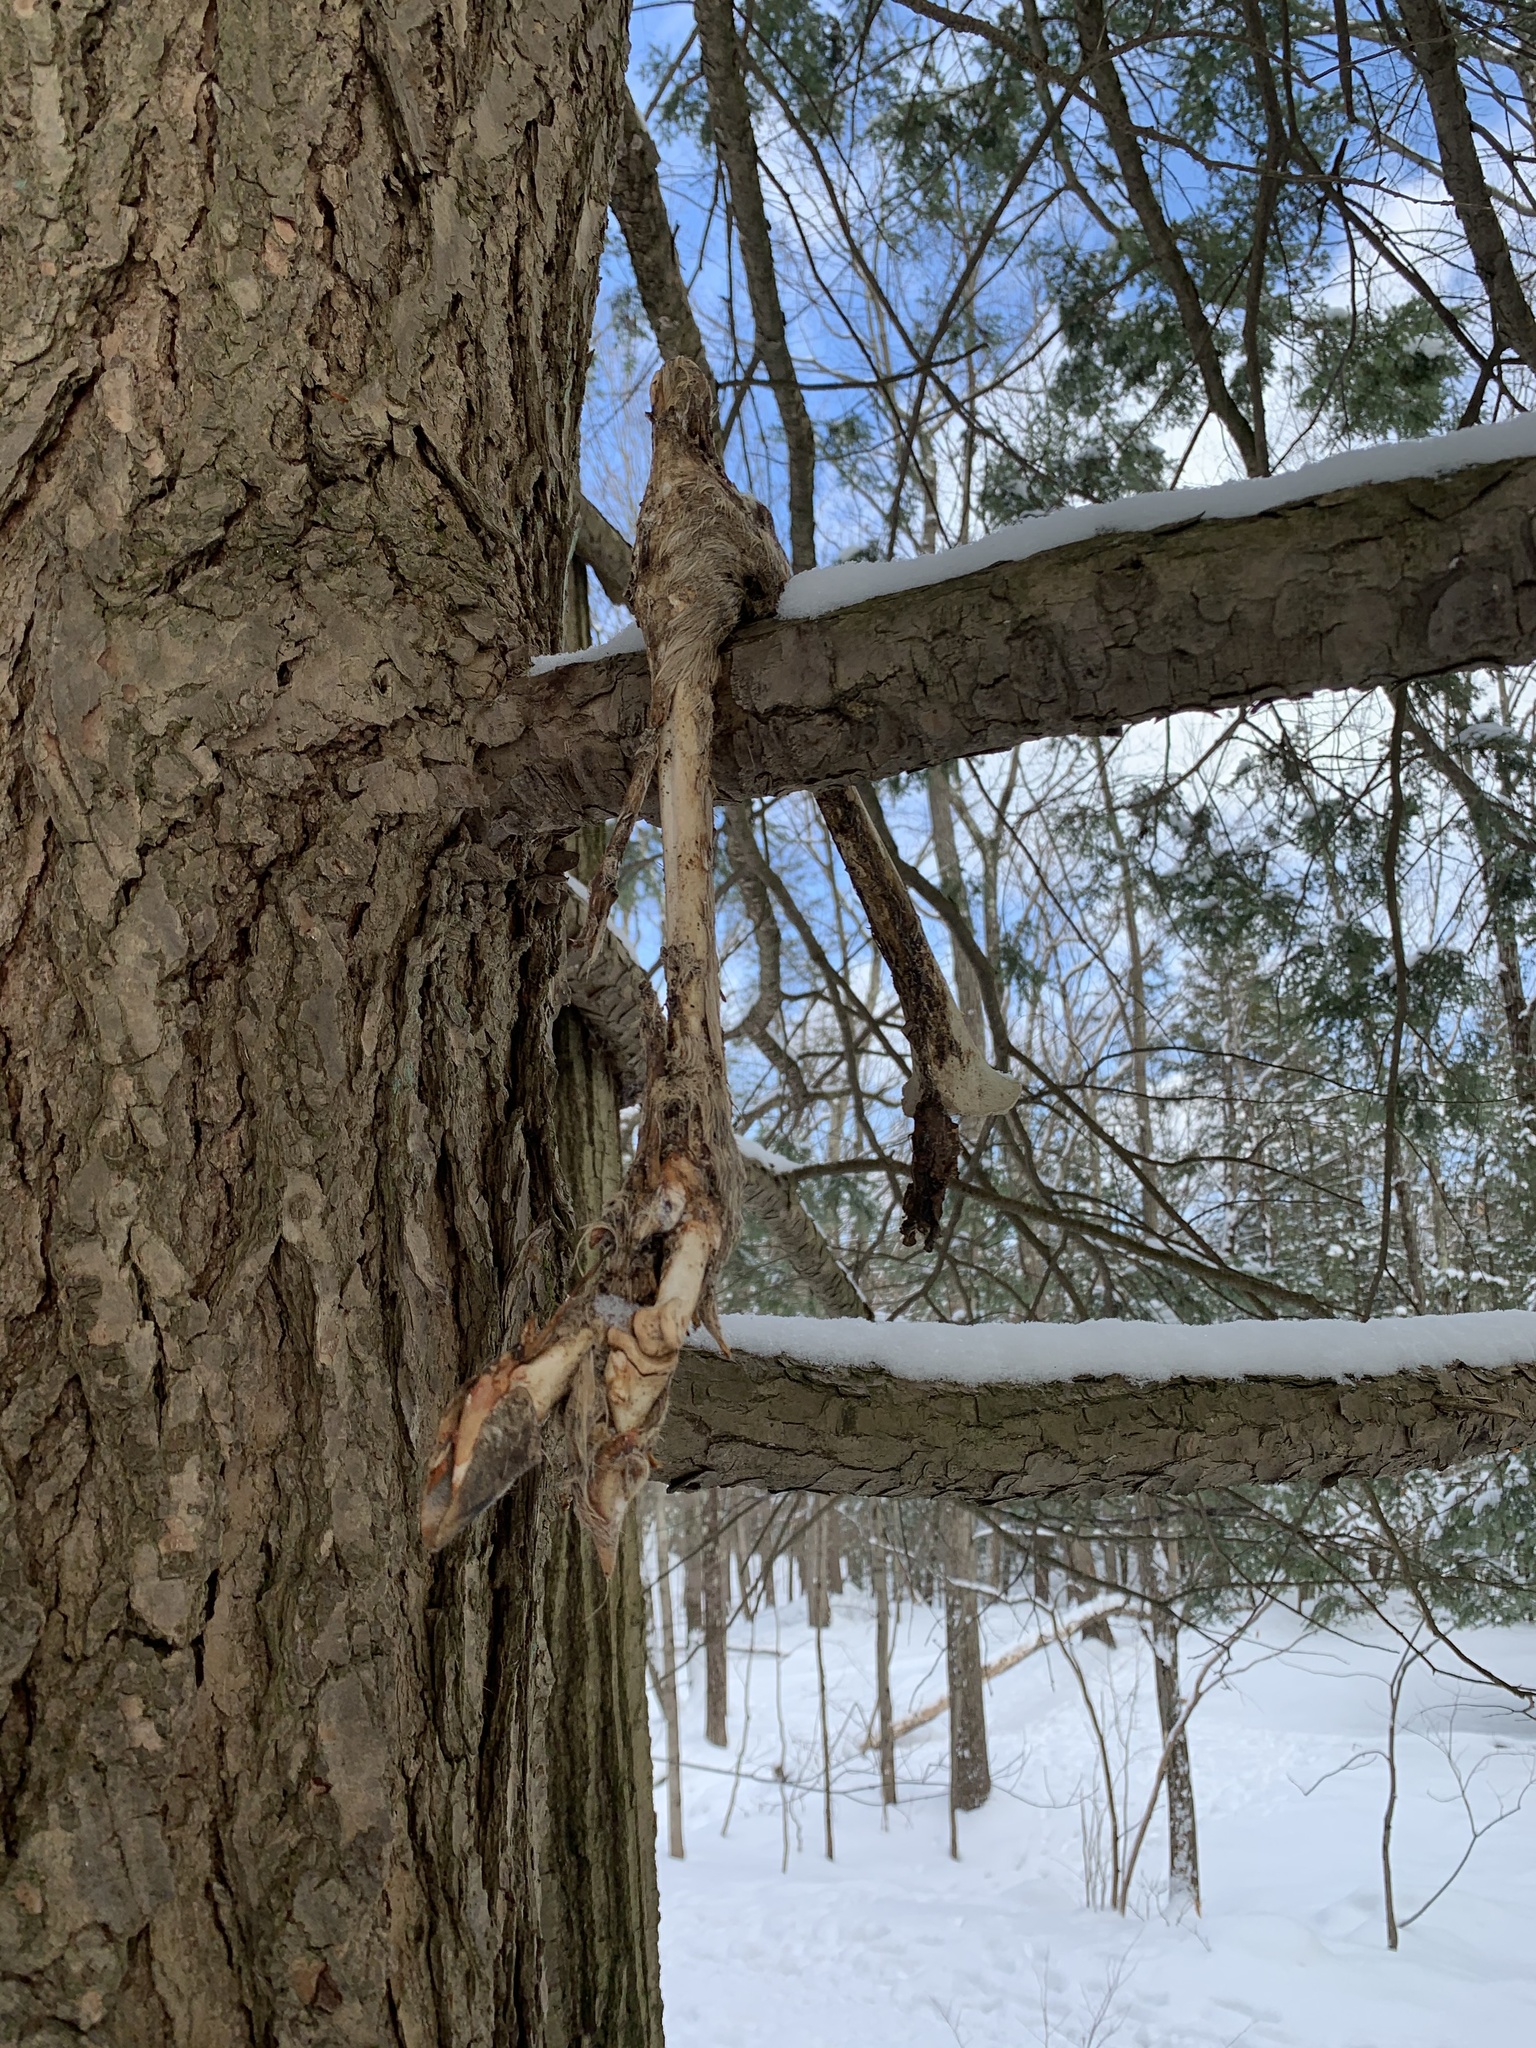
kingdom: Animalia
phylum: Chordata
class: Mammalia
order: Artiodactyla
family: Cervidae
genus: Odocoileus
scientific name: Odocoileus virginianus
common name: White-tailed deer
